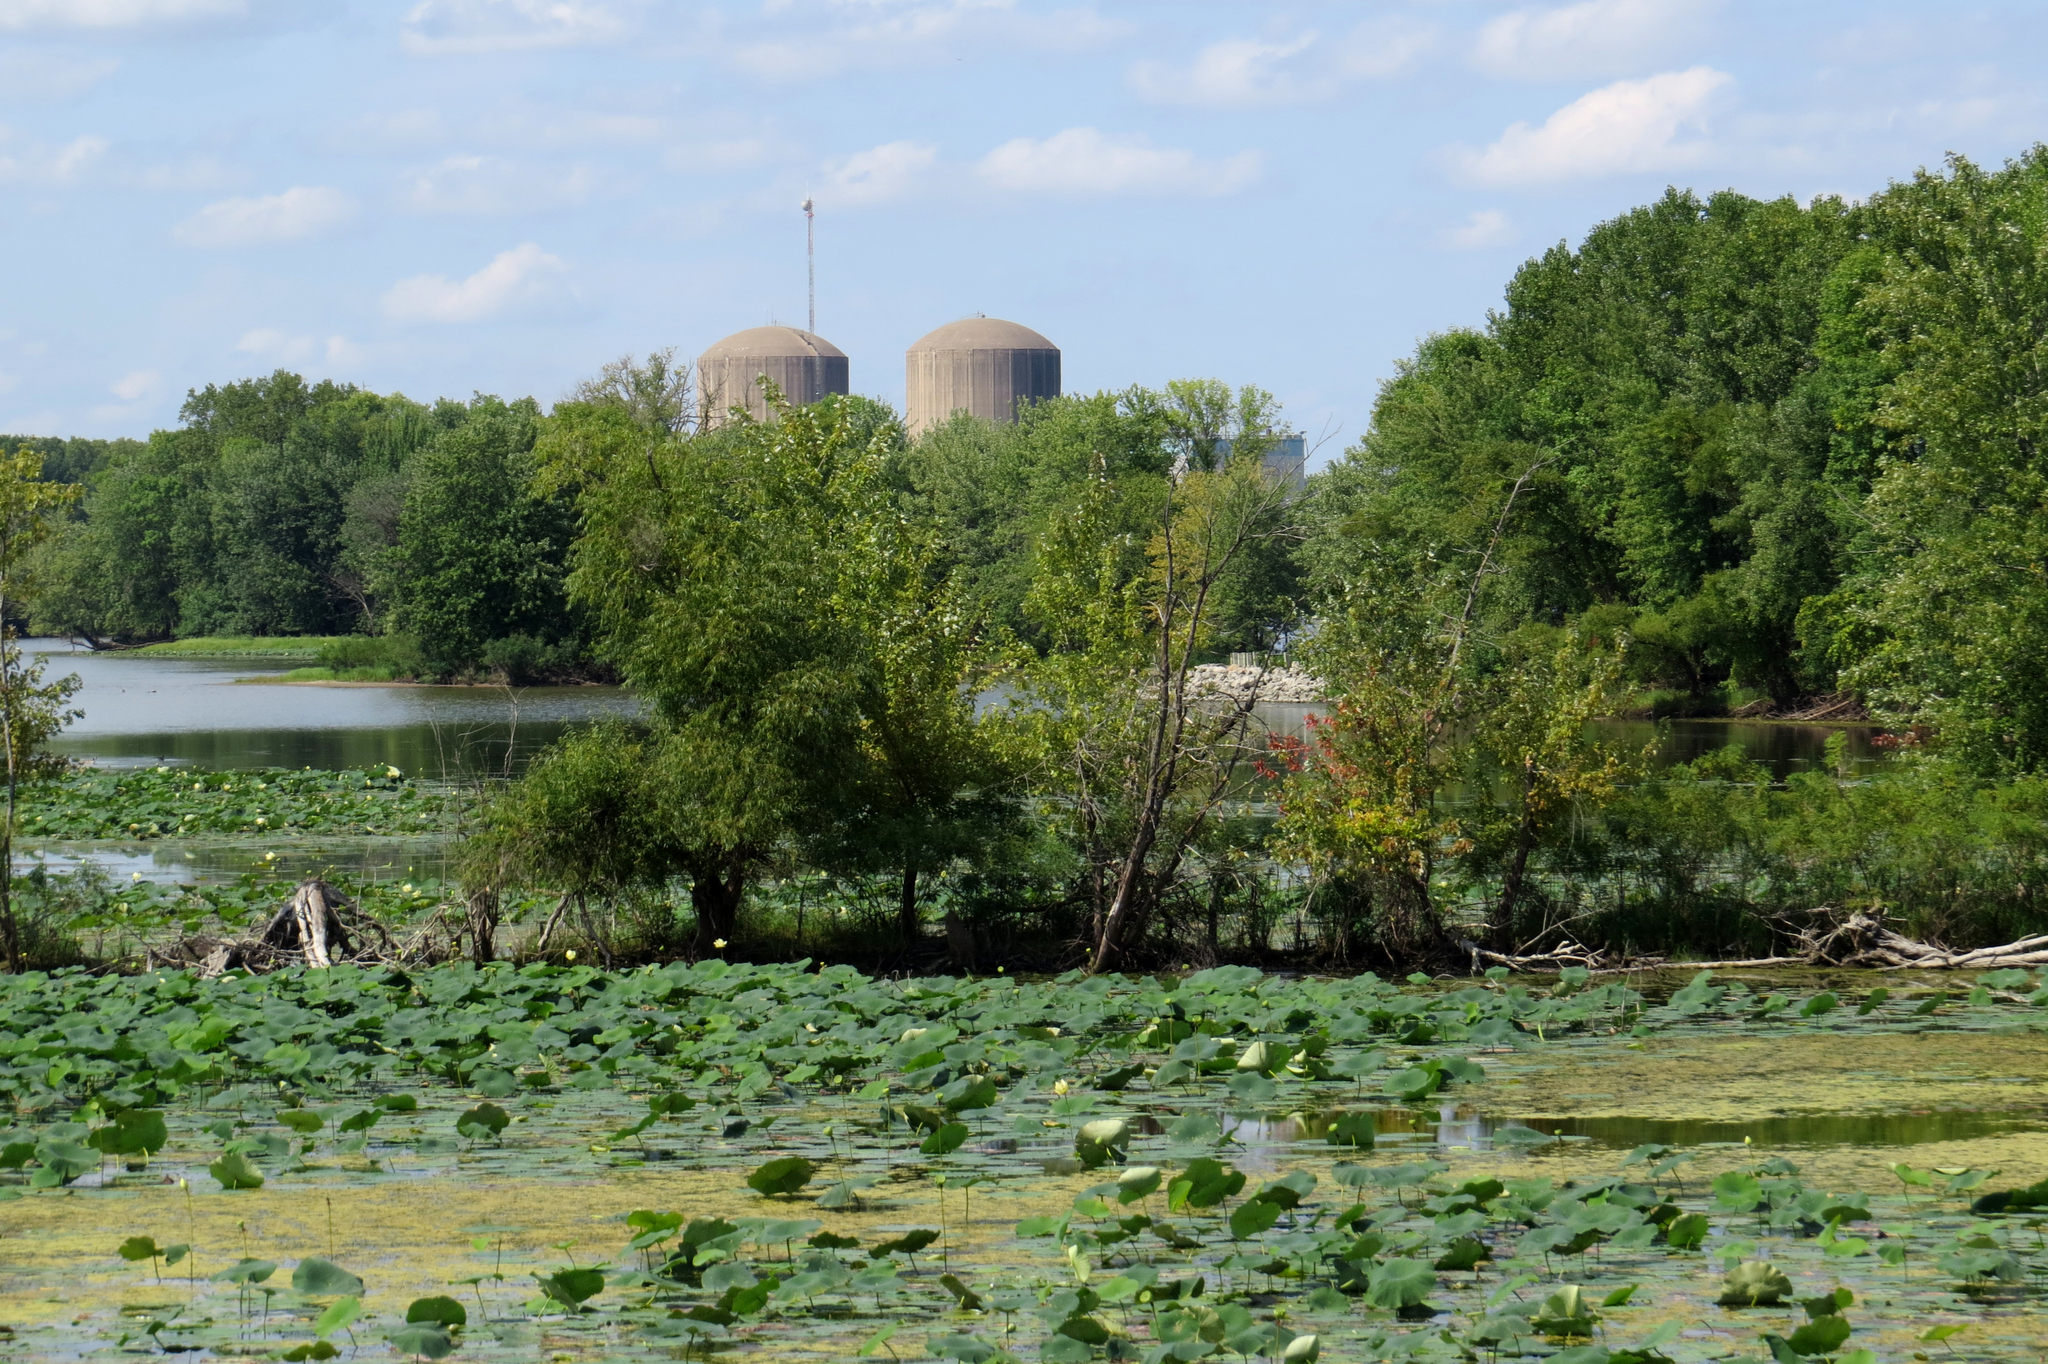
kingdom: Plantae
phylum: Tracheophyta
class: Magnoliopsida
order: Proteales
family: Nelumbonaceae
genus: Nelumbo
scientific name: Nelumbo lutea
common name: American lotus
